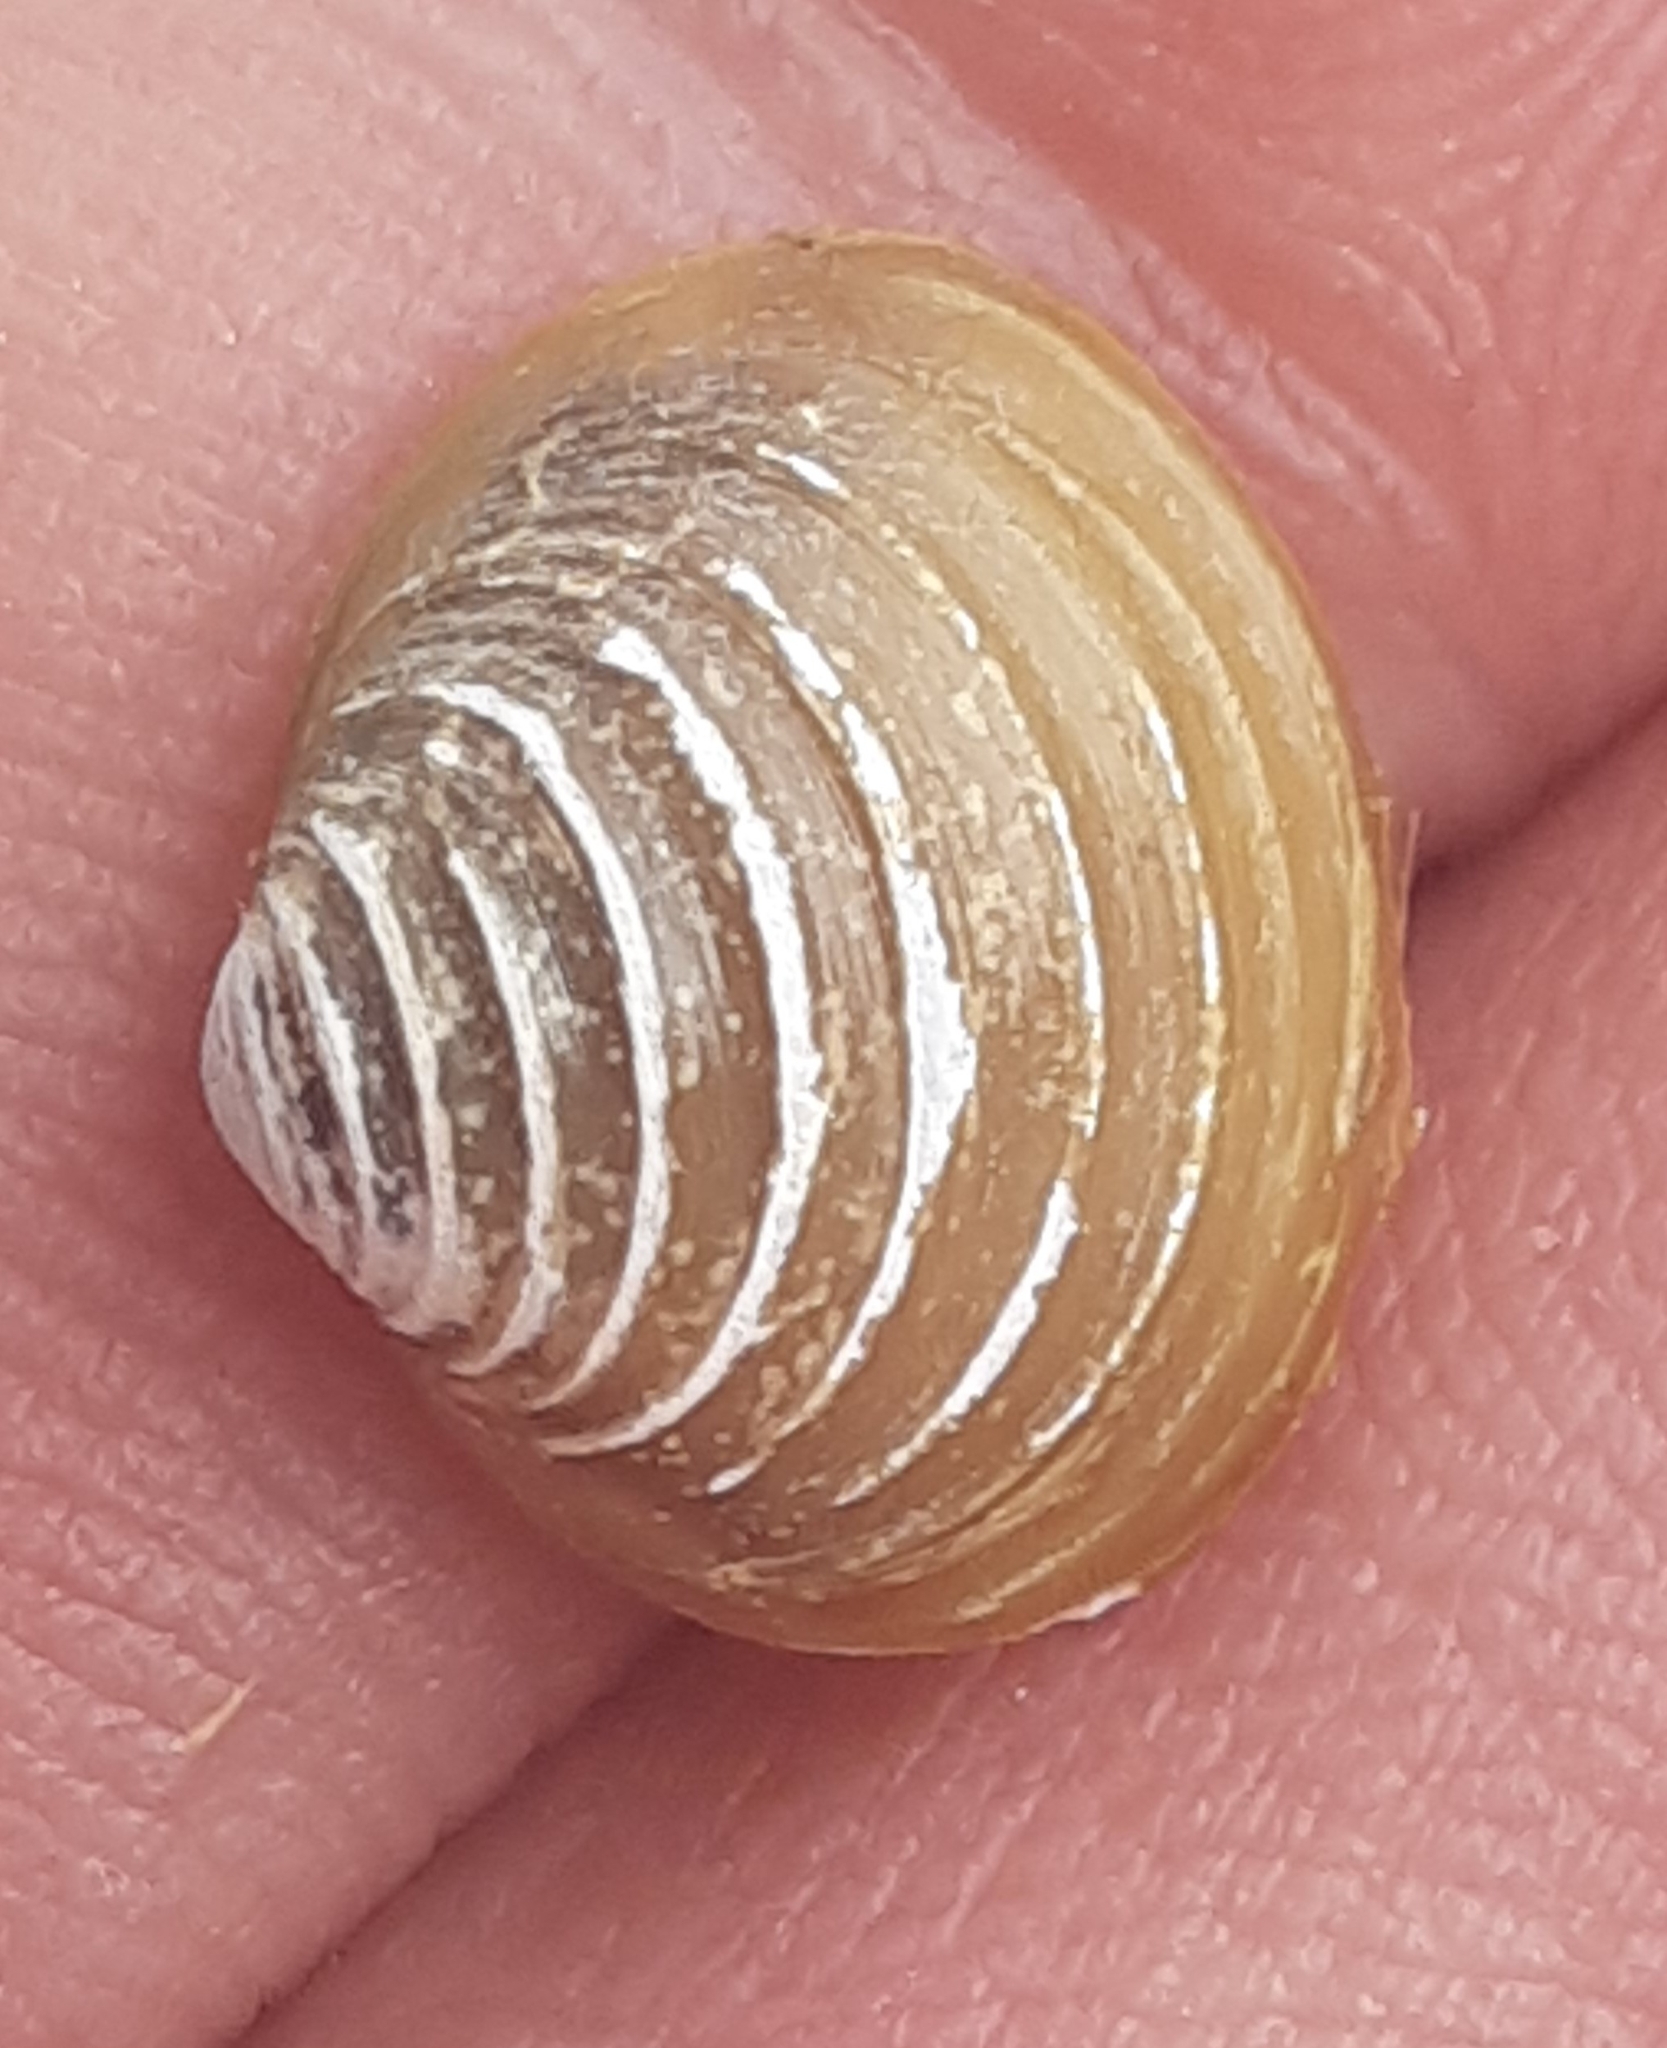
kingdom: Animalia
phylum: Mollusca
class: Bivalvia
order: Venerida
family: Cyrenidae
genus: Corbicula
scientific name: Corbicula fluminea
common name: Asian clam
